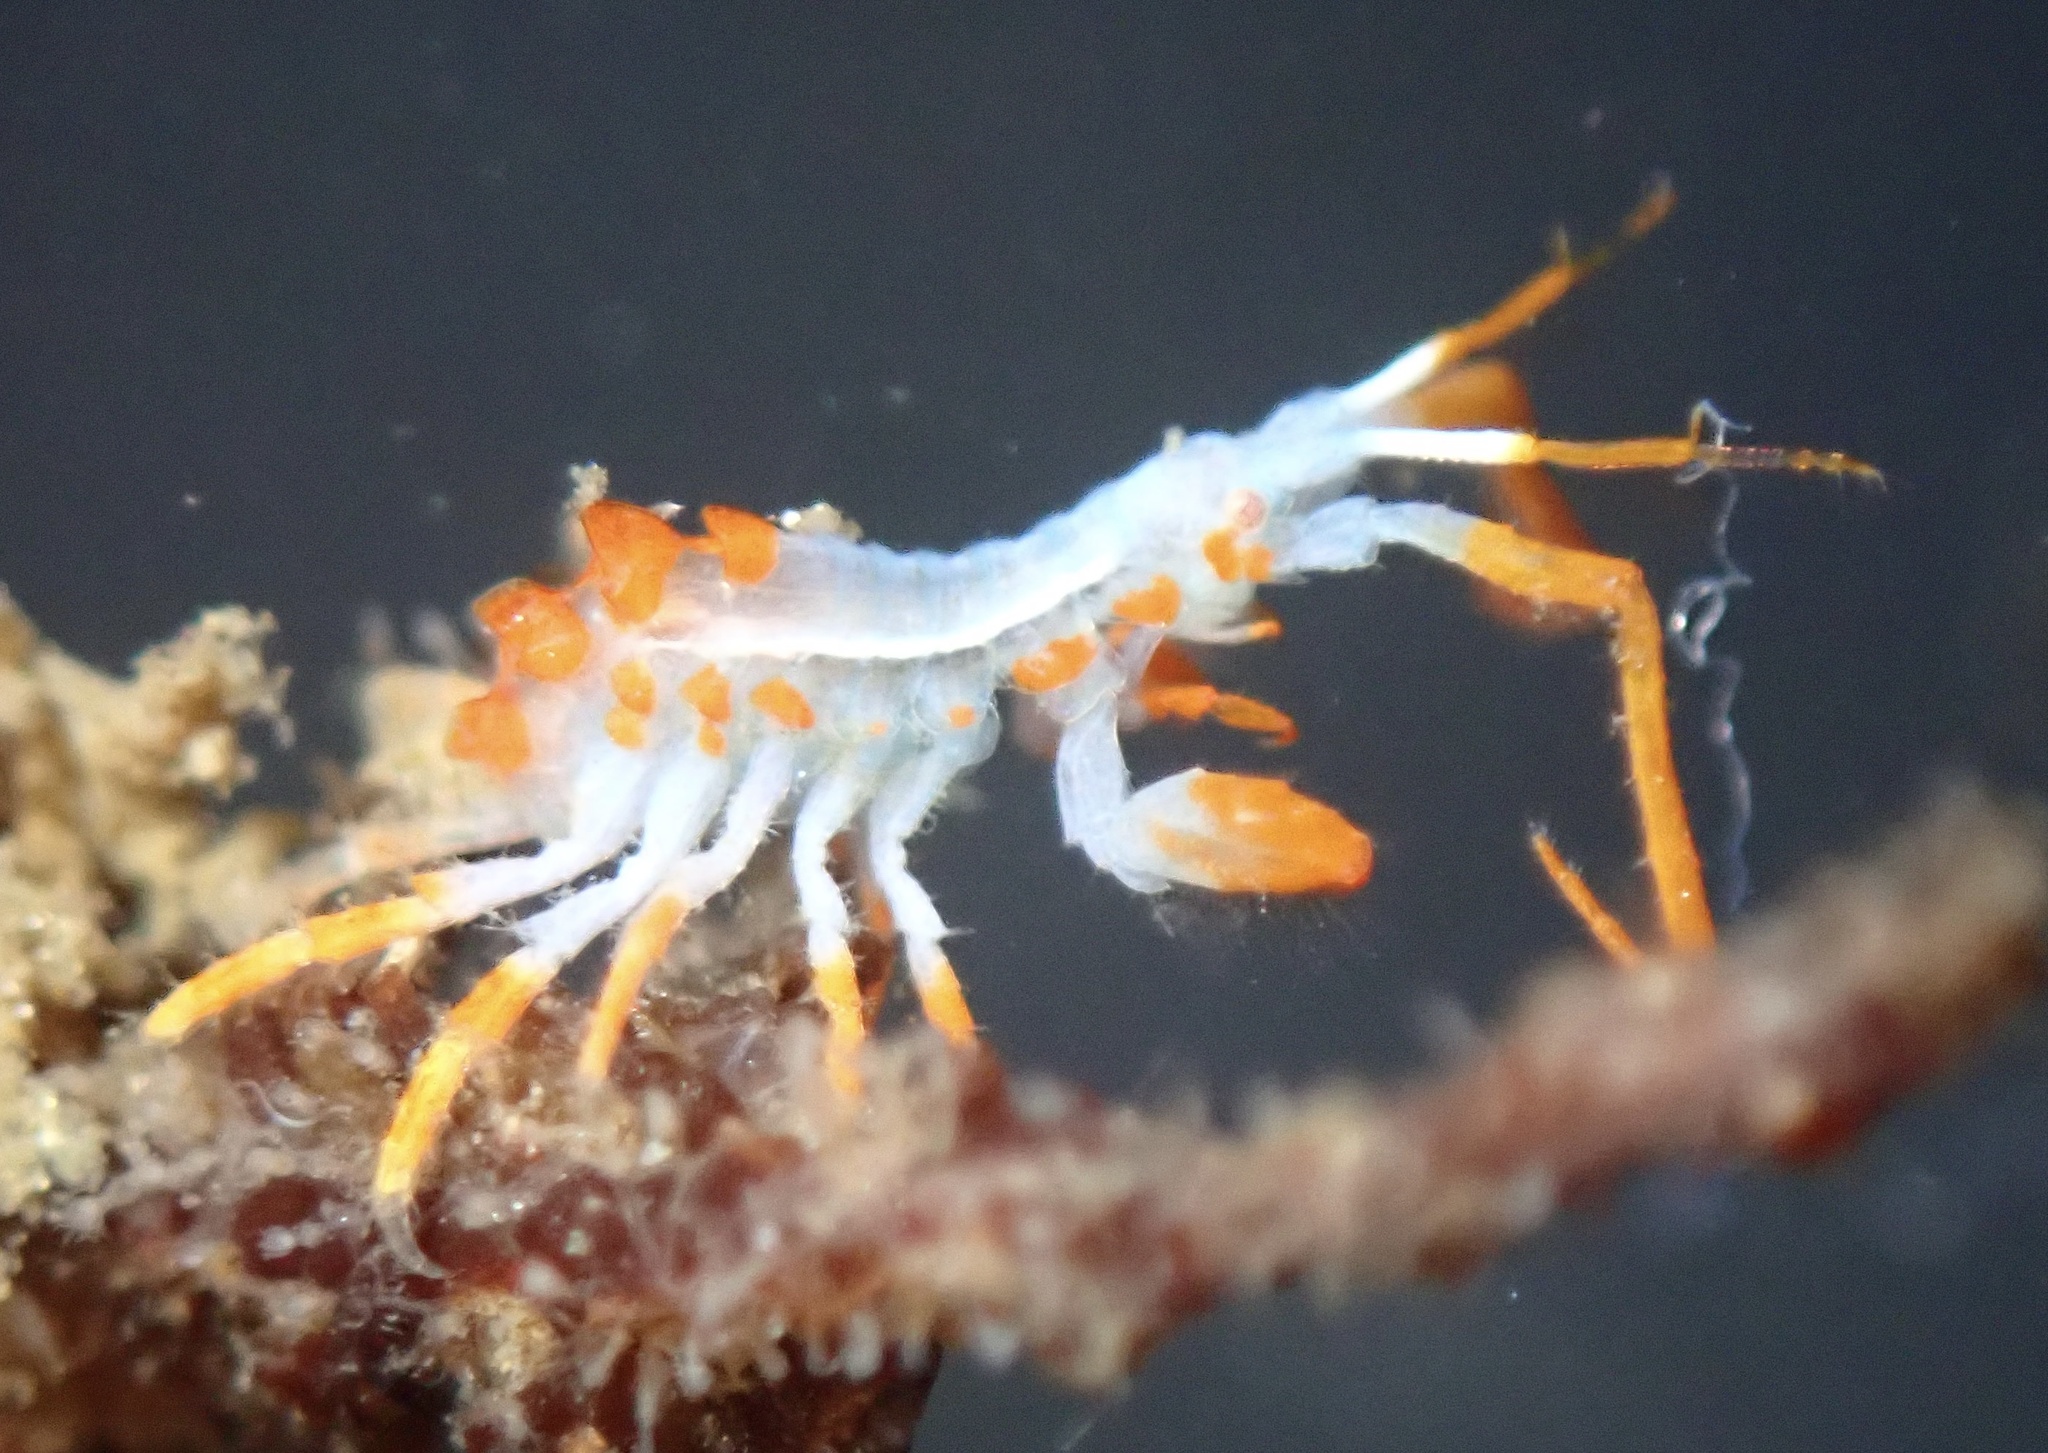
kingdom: Animalia
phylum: Arthropoda
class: Malacostraca
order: Amphipoda
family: Podoceridae
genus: Podocerus
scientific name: Podocerus cristatus
